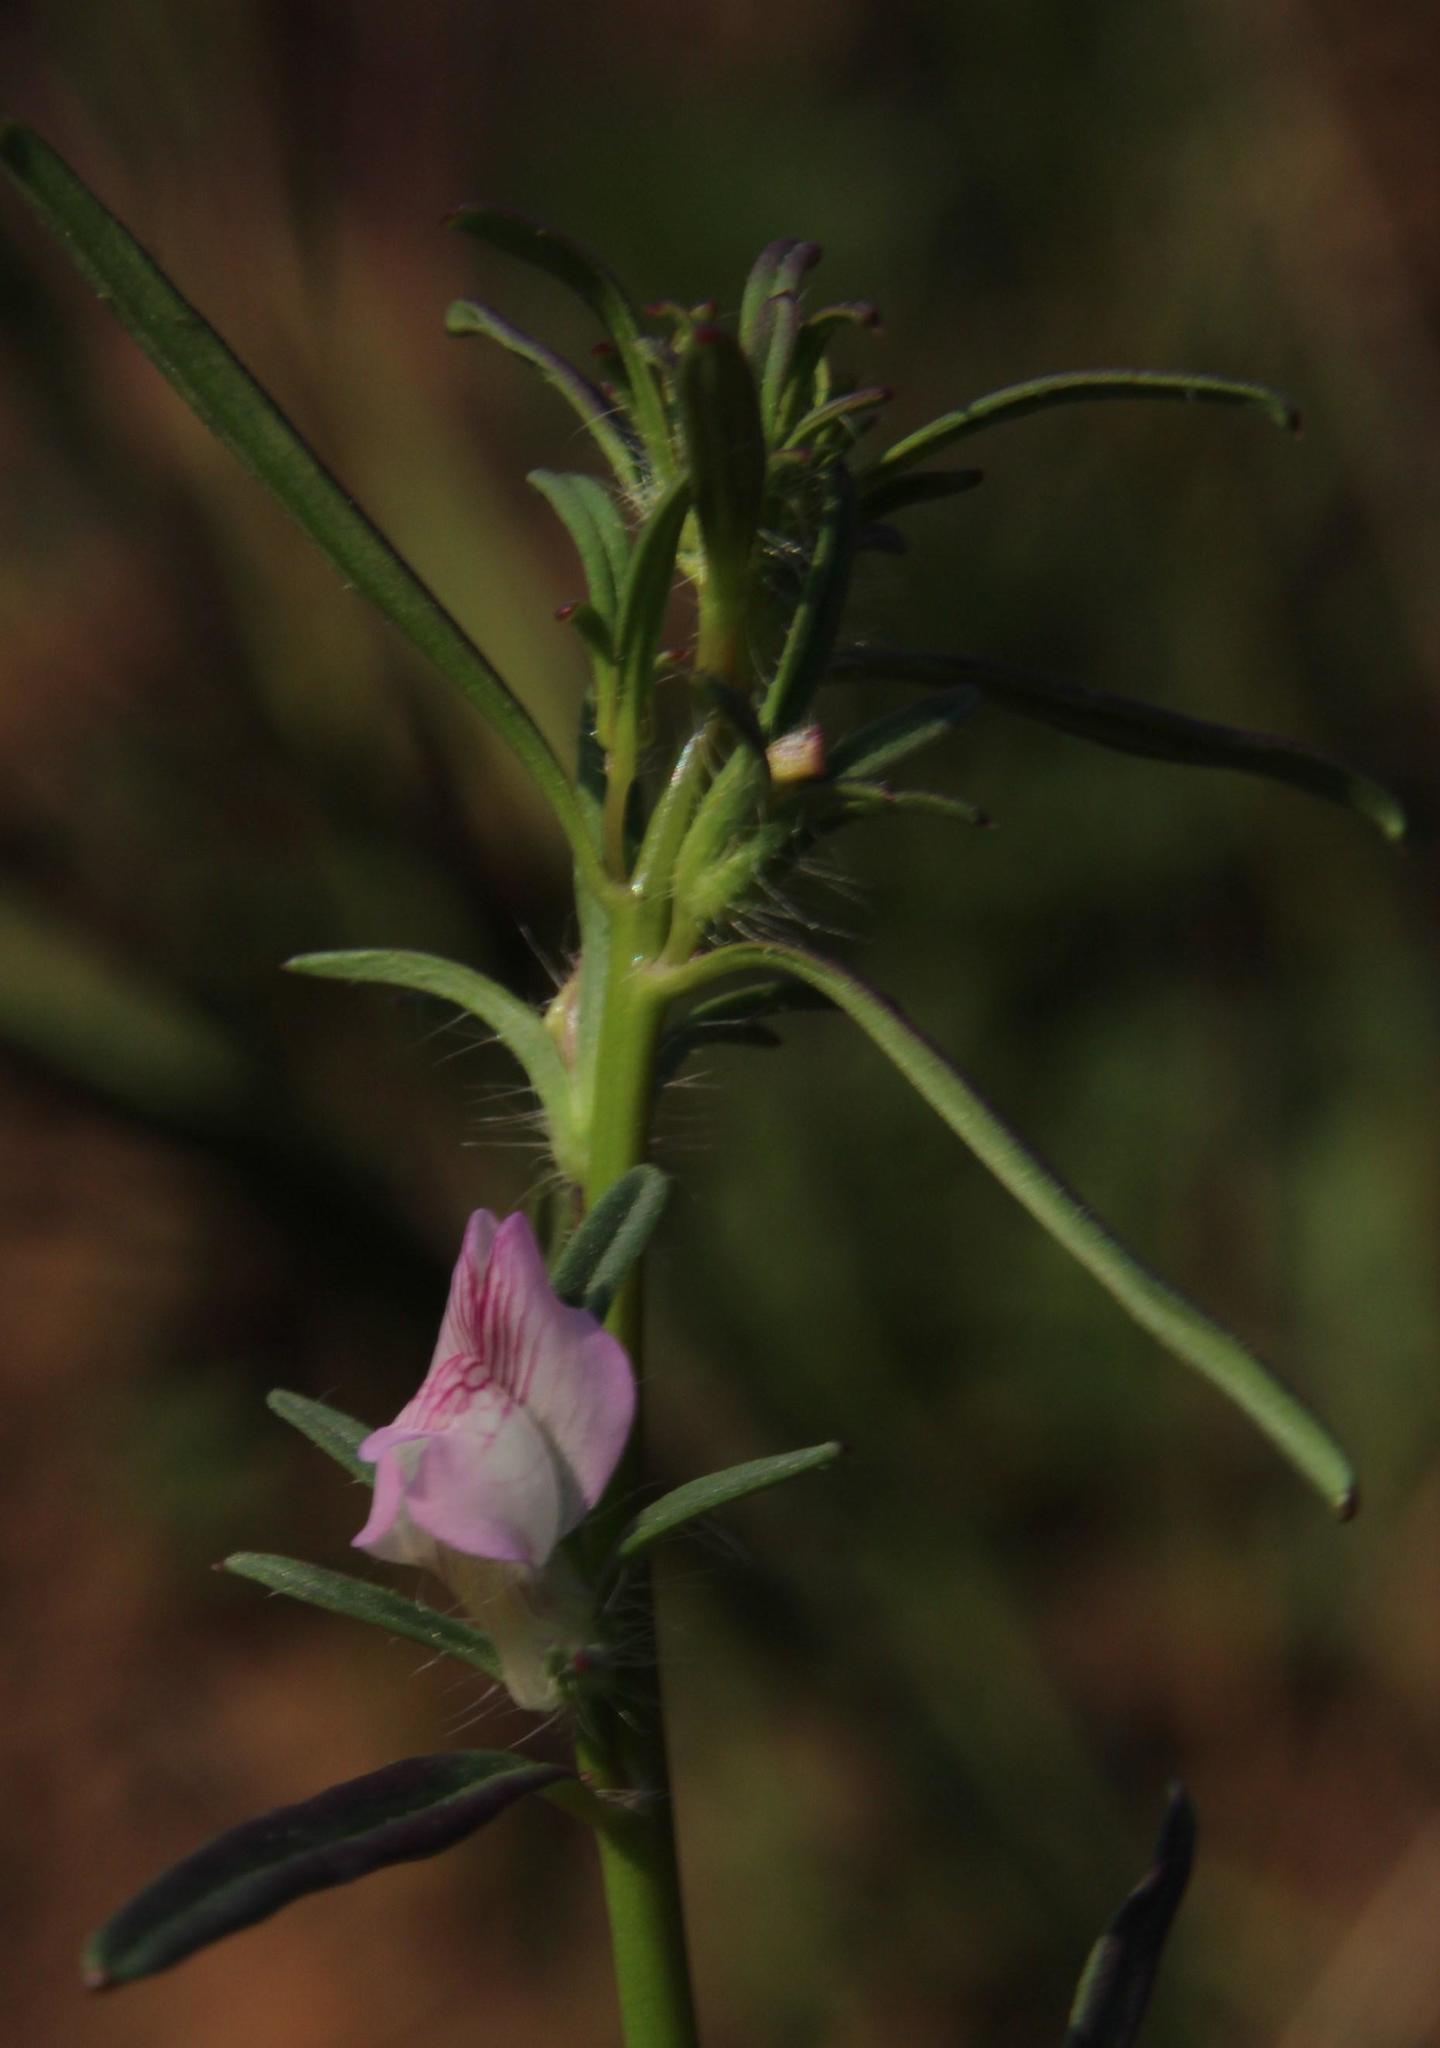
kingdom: Plantae
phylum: Tracheophyta
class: Magnoliopsida
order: Lamiales
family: Plantaginaceae
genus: Misopates
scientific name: Misopates orontium
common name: Weasel's-snout
